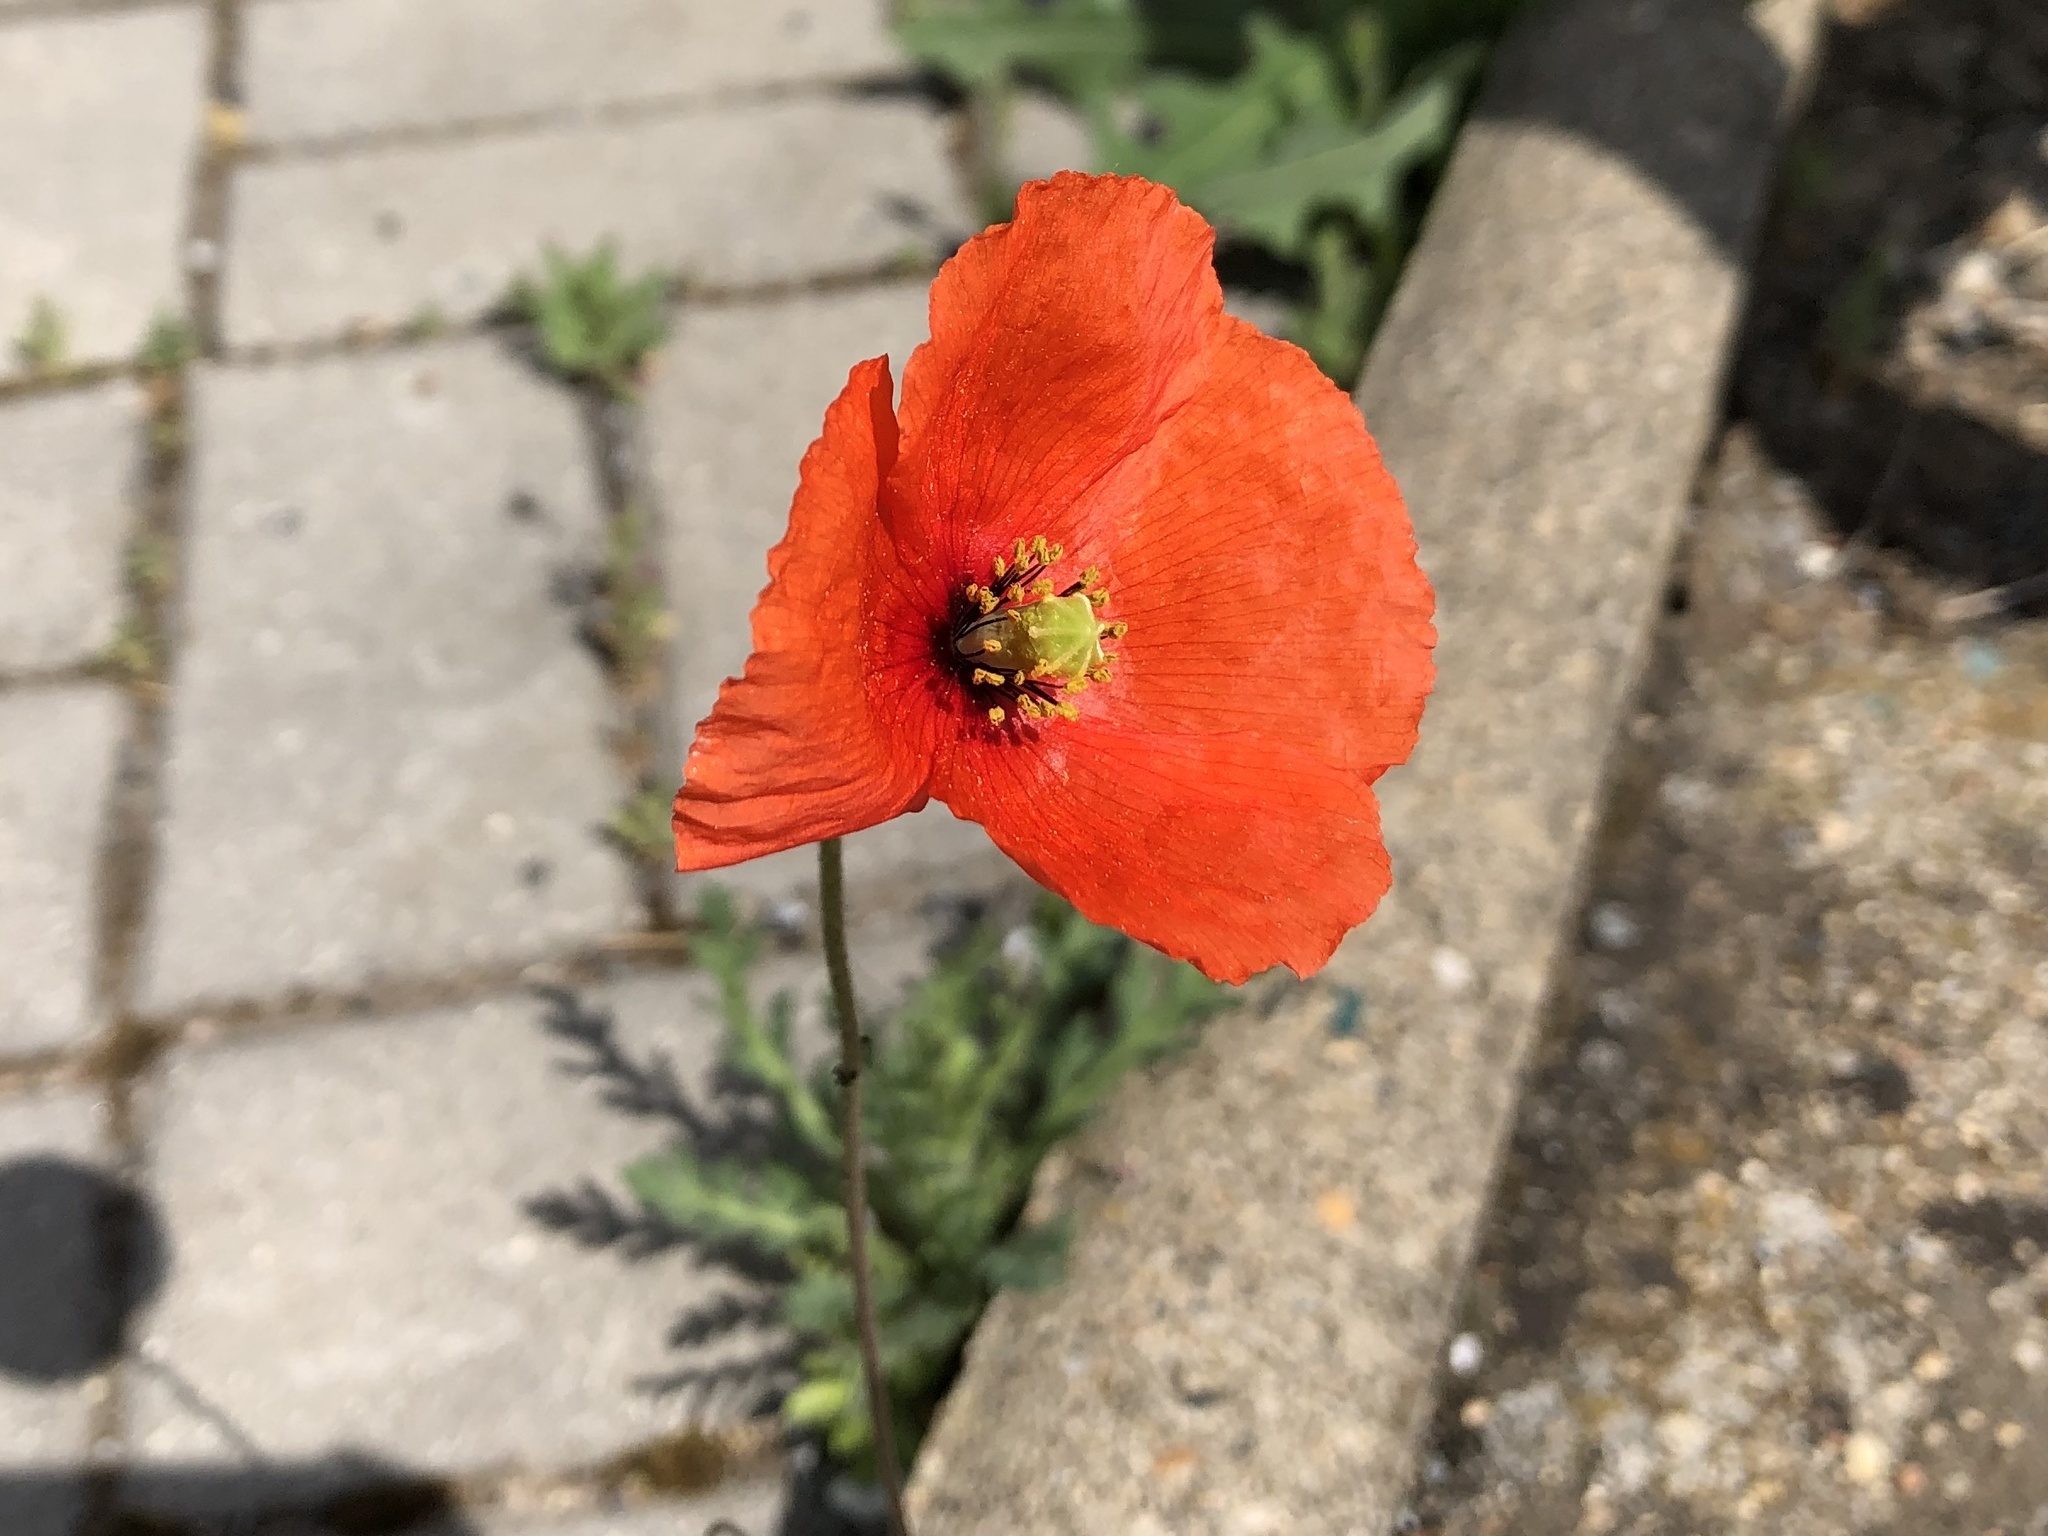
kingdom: Plantae
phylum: Tracheophyta
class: Magnoliopsida
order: Ranunculales
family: Papaveraceae
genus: Papaver
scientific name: Papaver dubium
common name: Long-headed poppy
